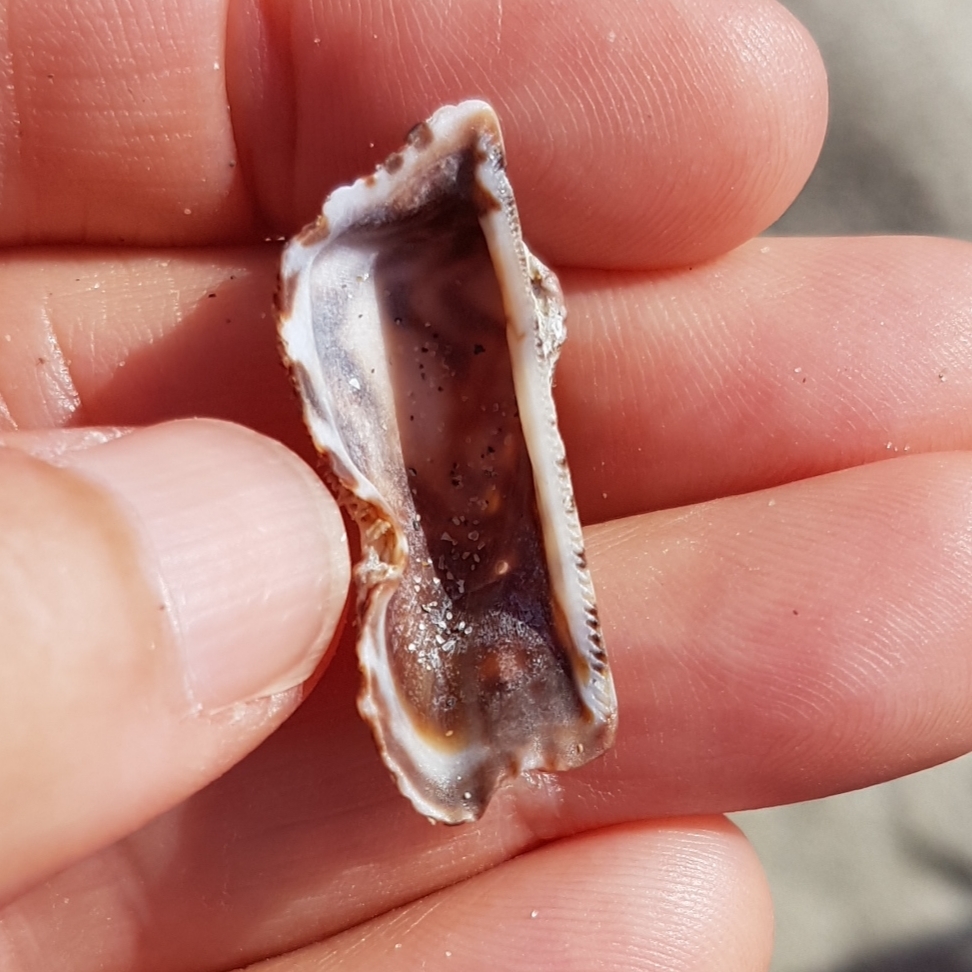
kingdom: Animalia
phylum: Mollusca
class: Bivalvia
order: Arcida
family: Arcidae
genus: Arca
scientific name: Arca noae
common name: Noah's arch
